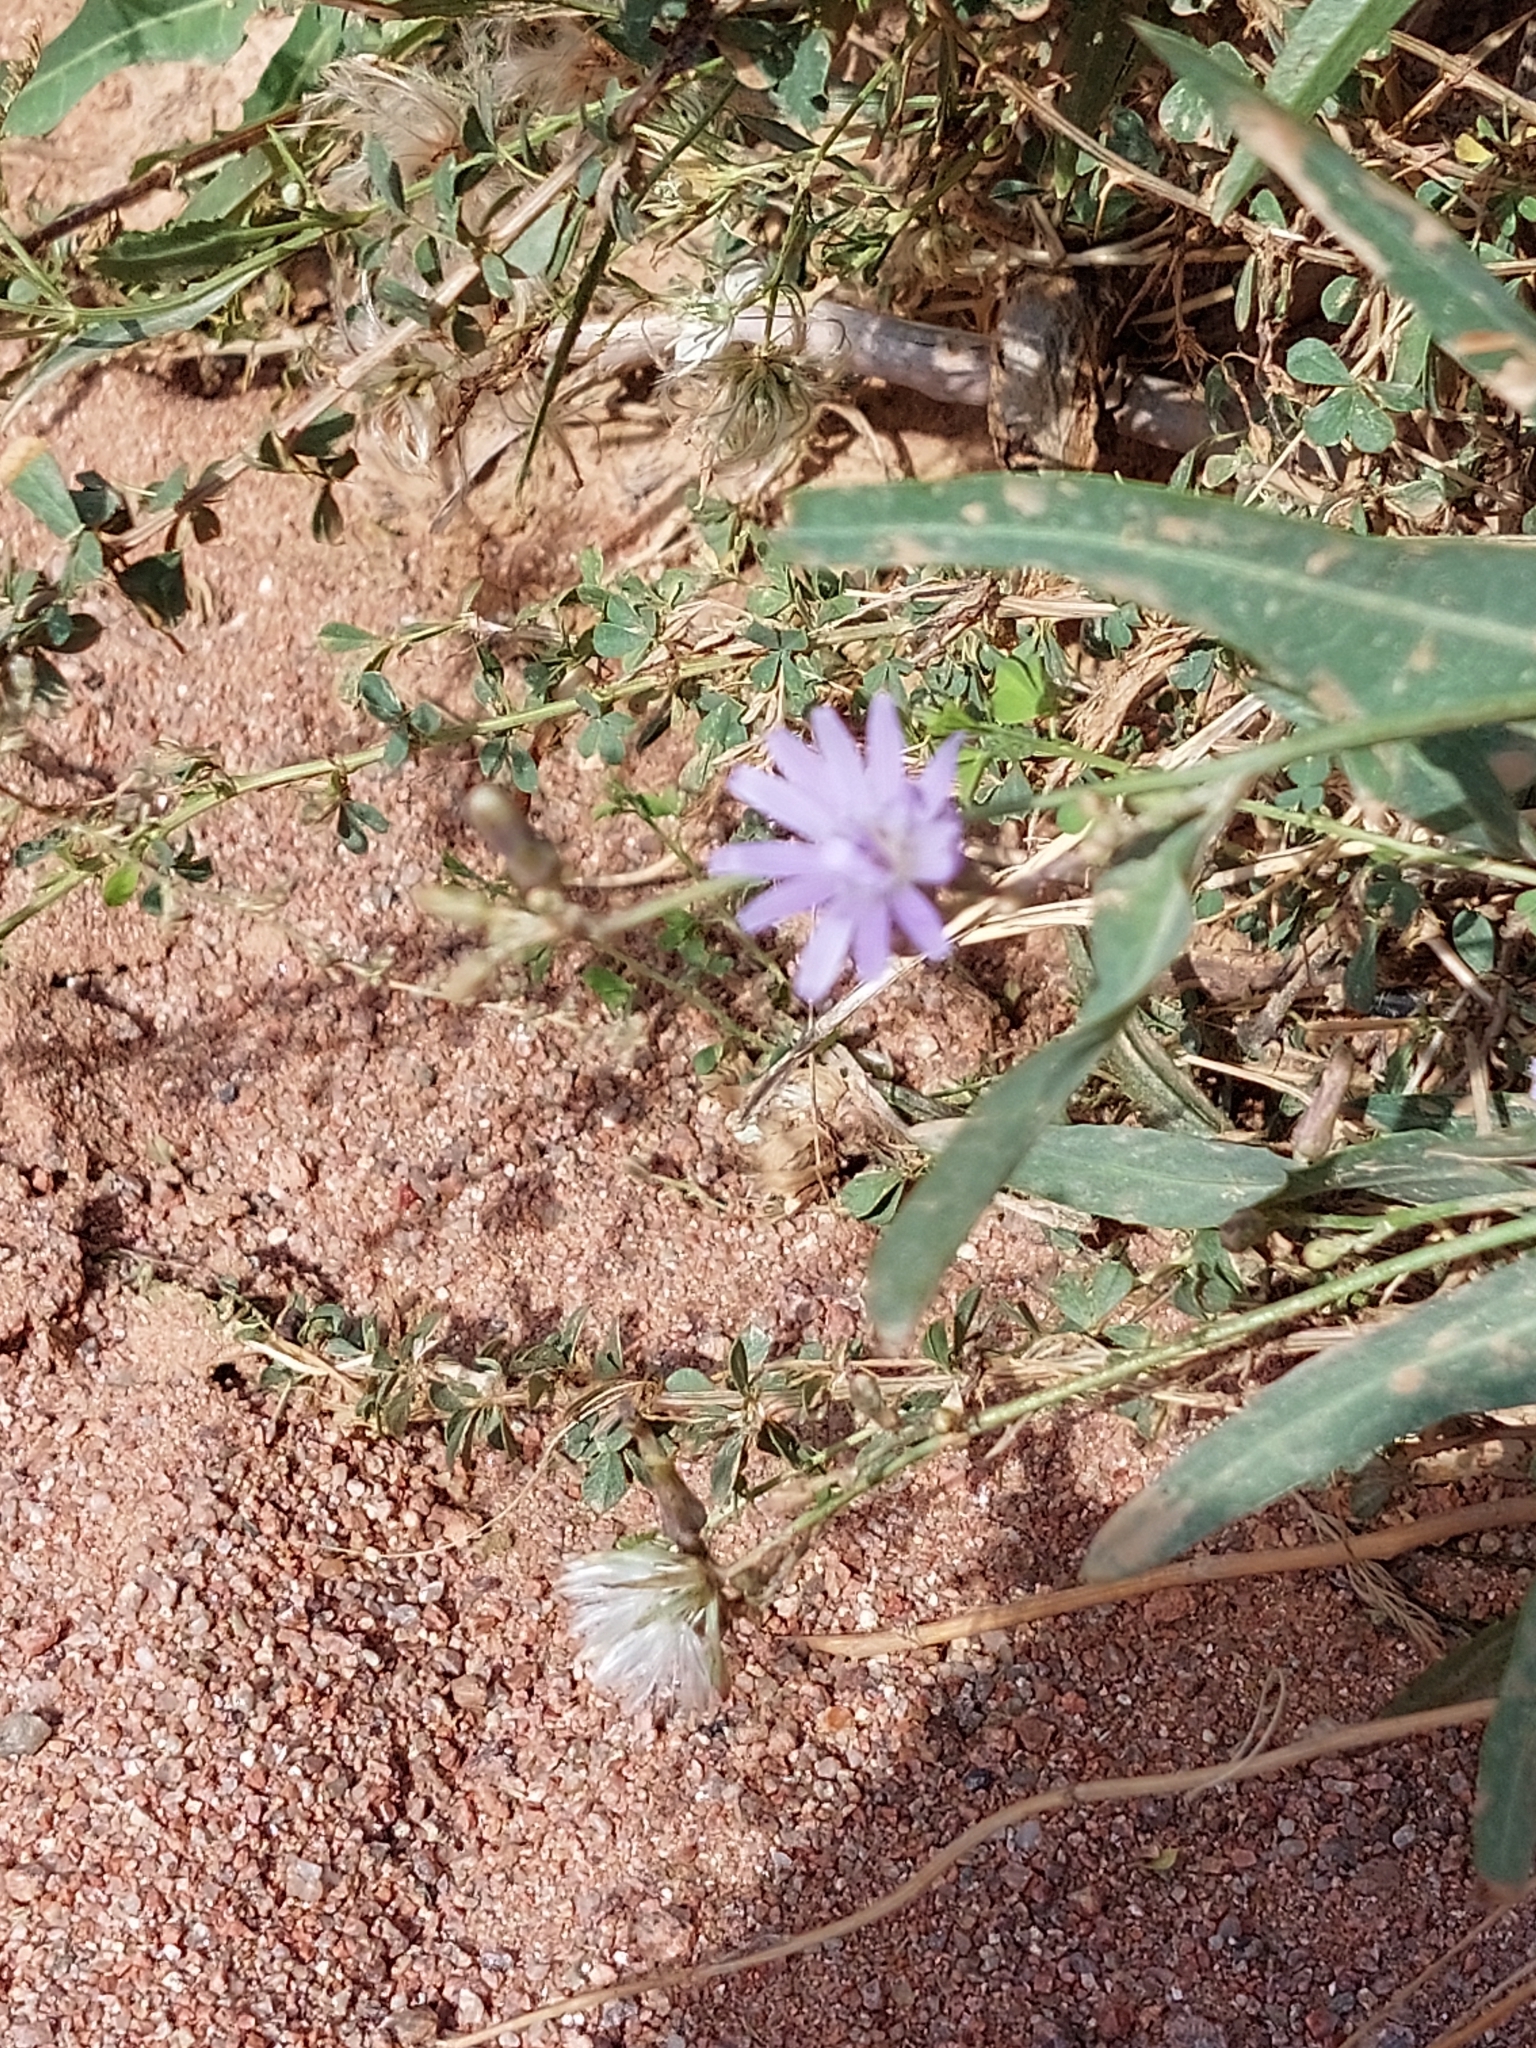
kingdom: Plantae
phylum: Tracheophyta
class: Magnoliopsida
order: Asterales
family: Asteraceae
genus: Lactuca
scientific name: Lactuca tatarica
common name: Blue lettuce
